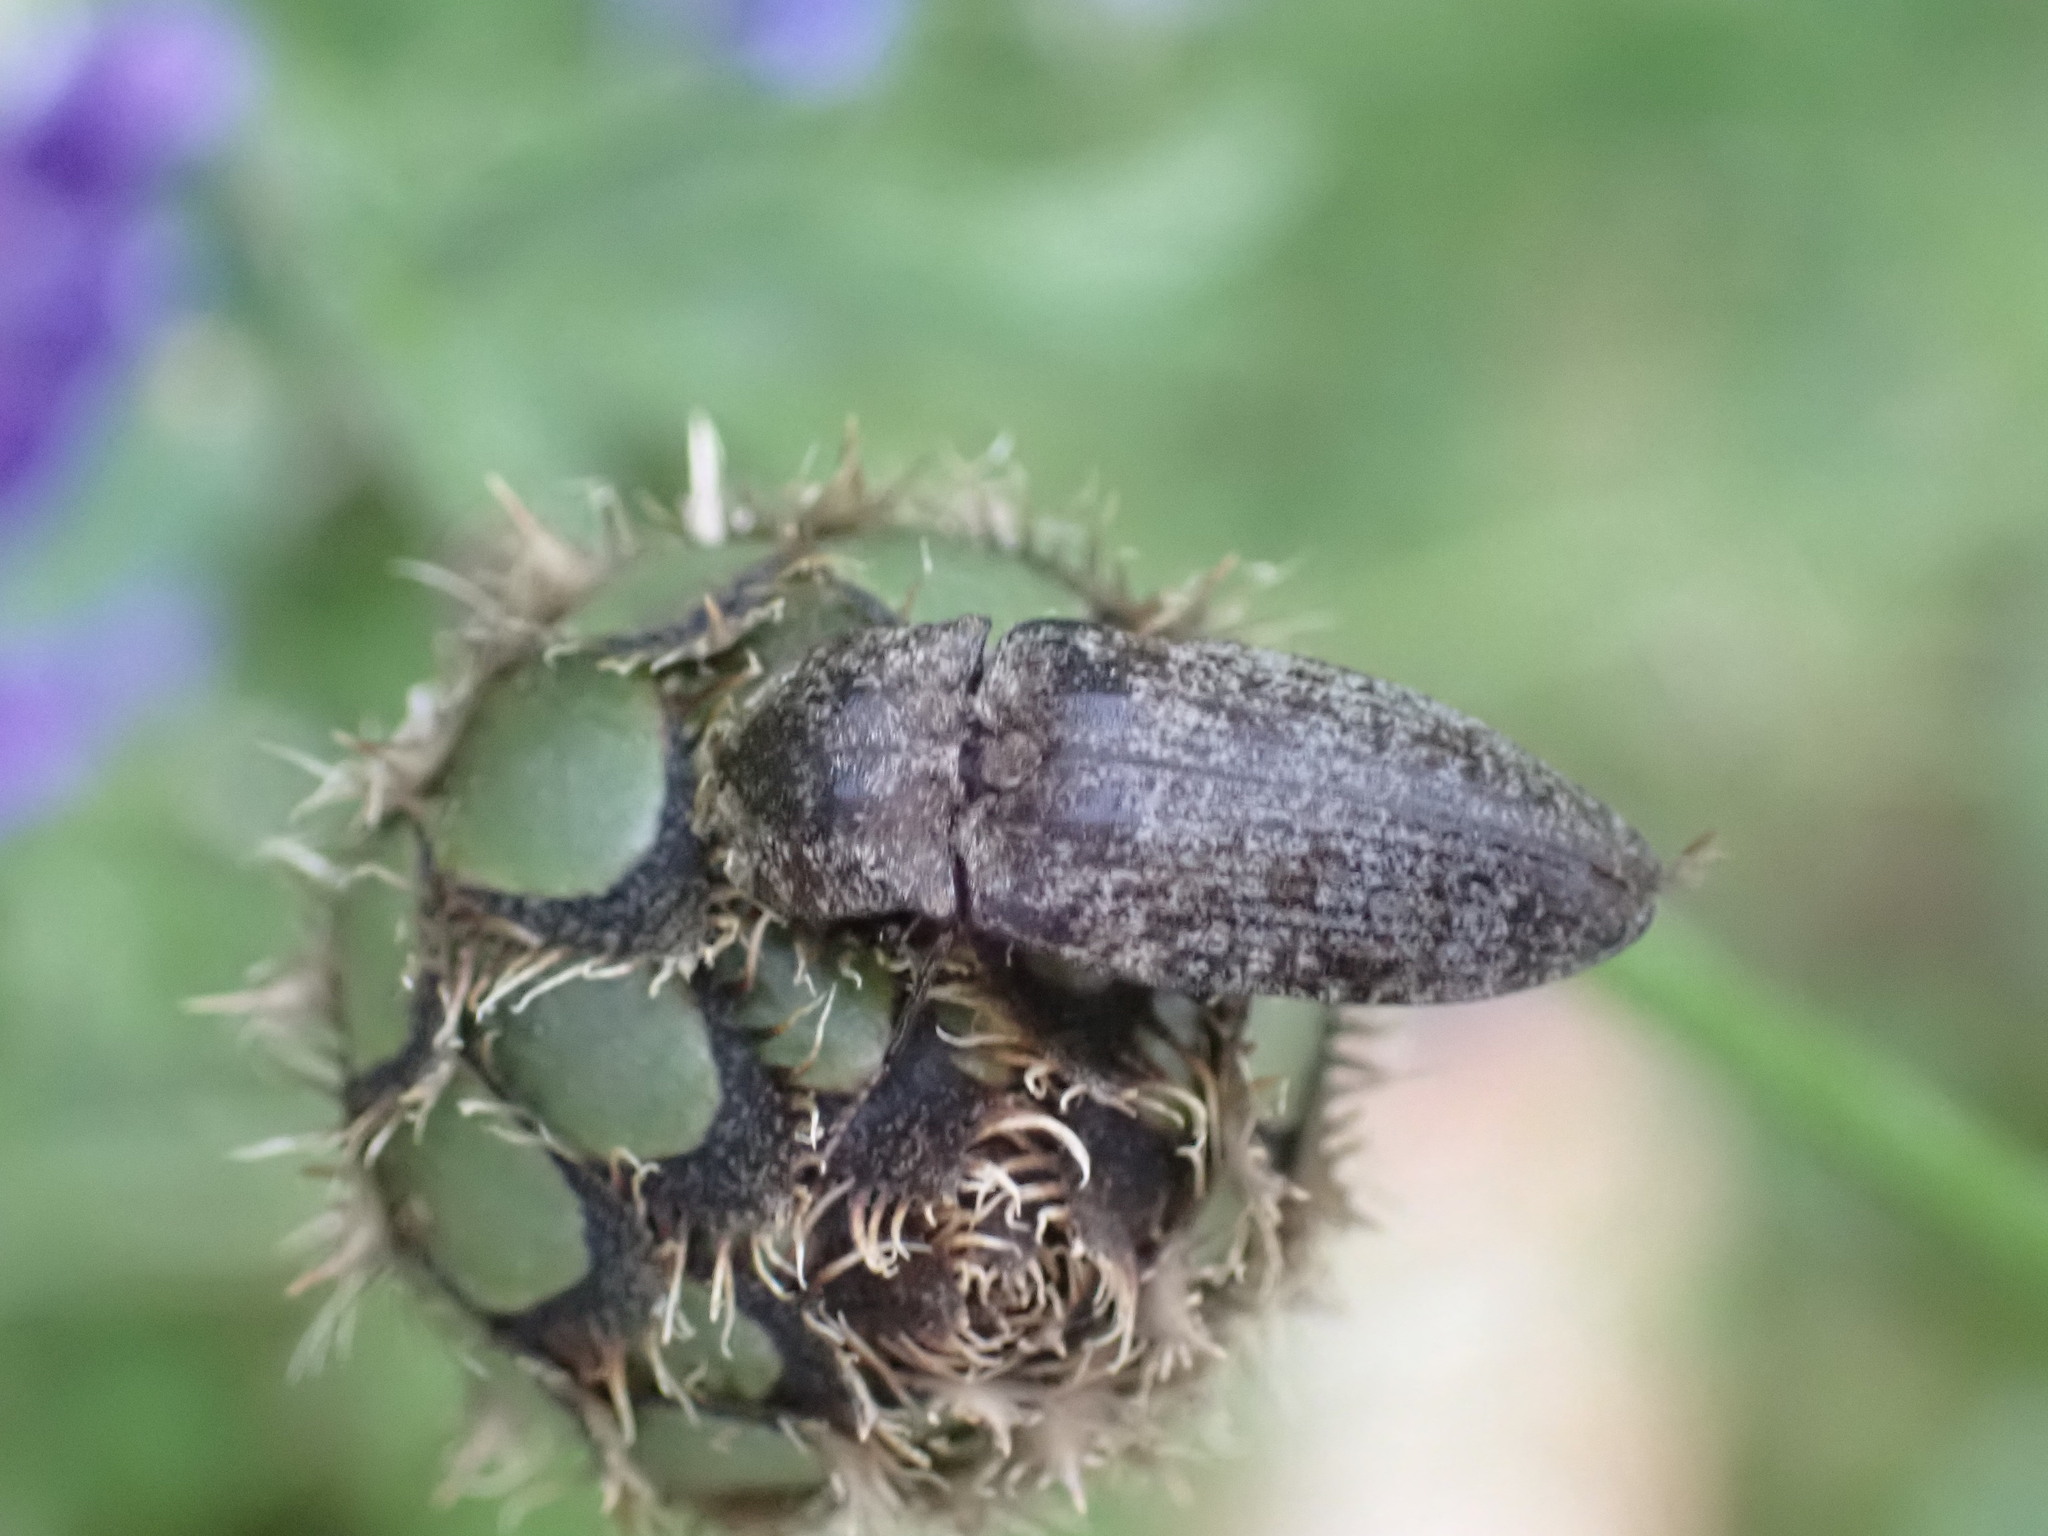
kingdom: Animalia
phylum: Arthropoda
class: Insecta
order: Coleoptera
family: Elateridae
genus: Agrypnus
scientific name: Agrypnus murinus
